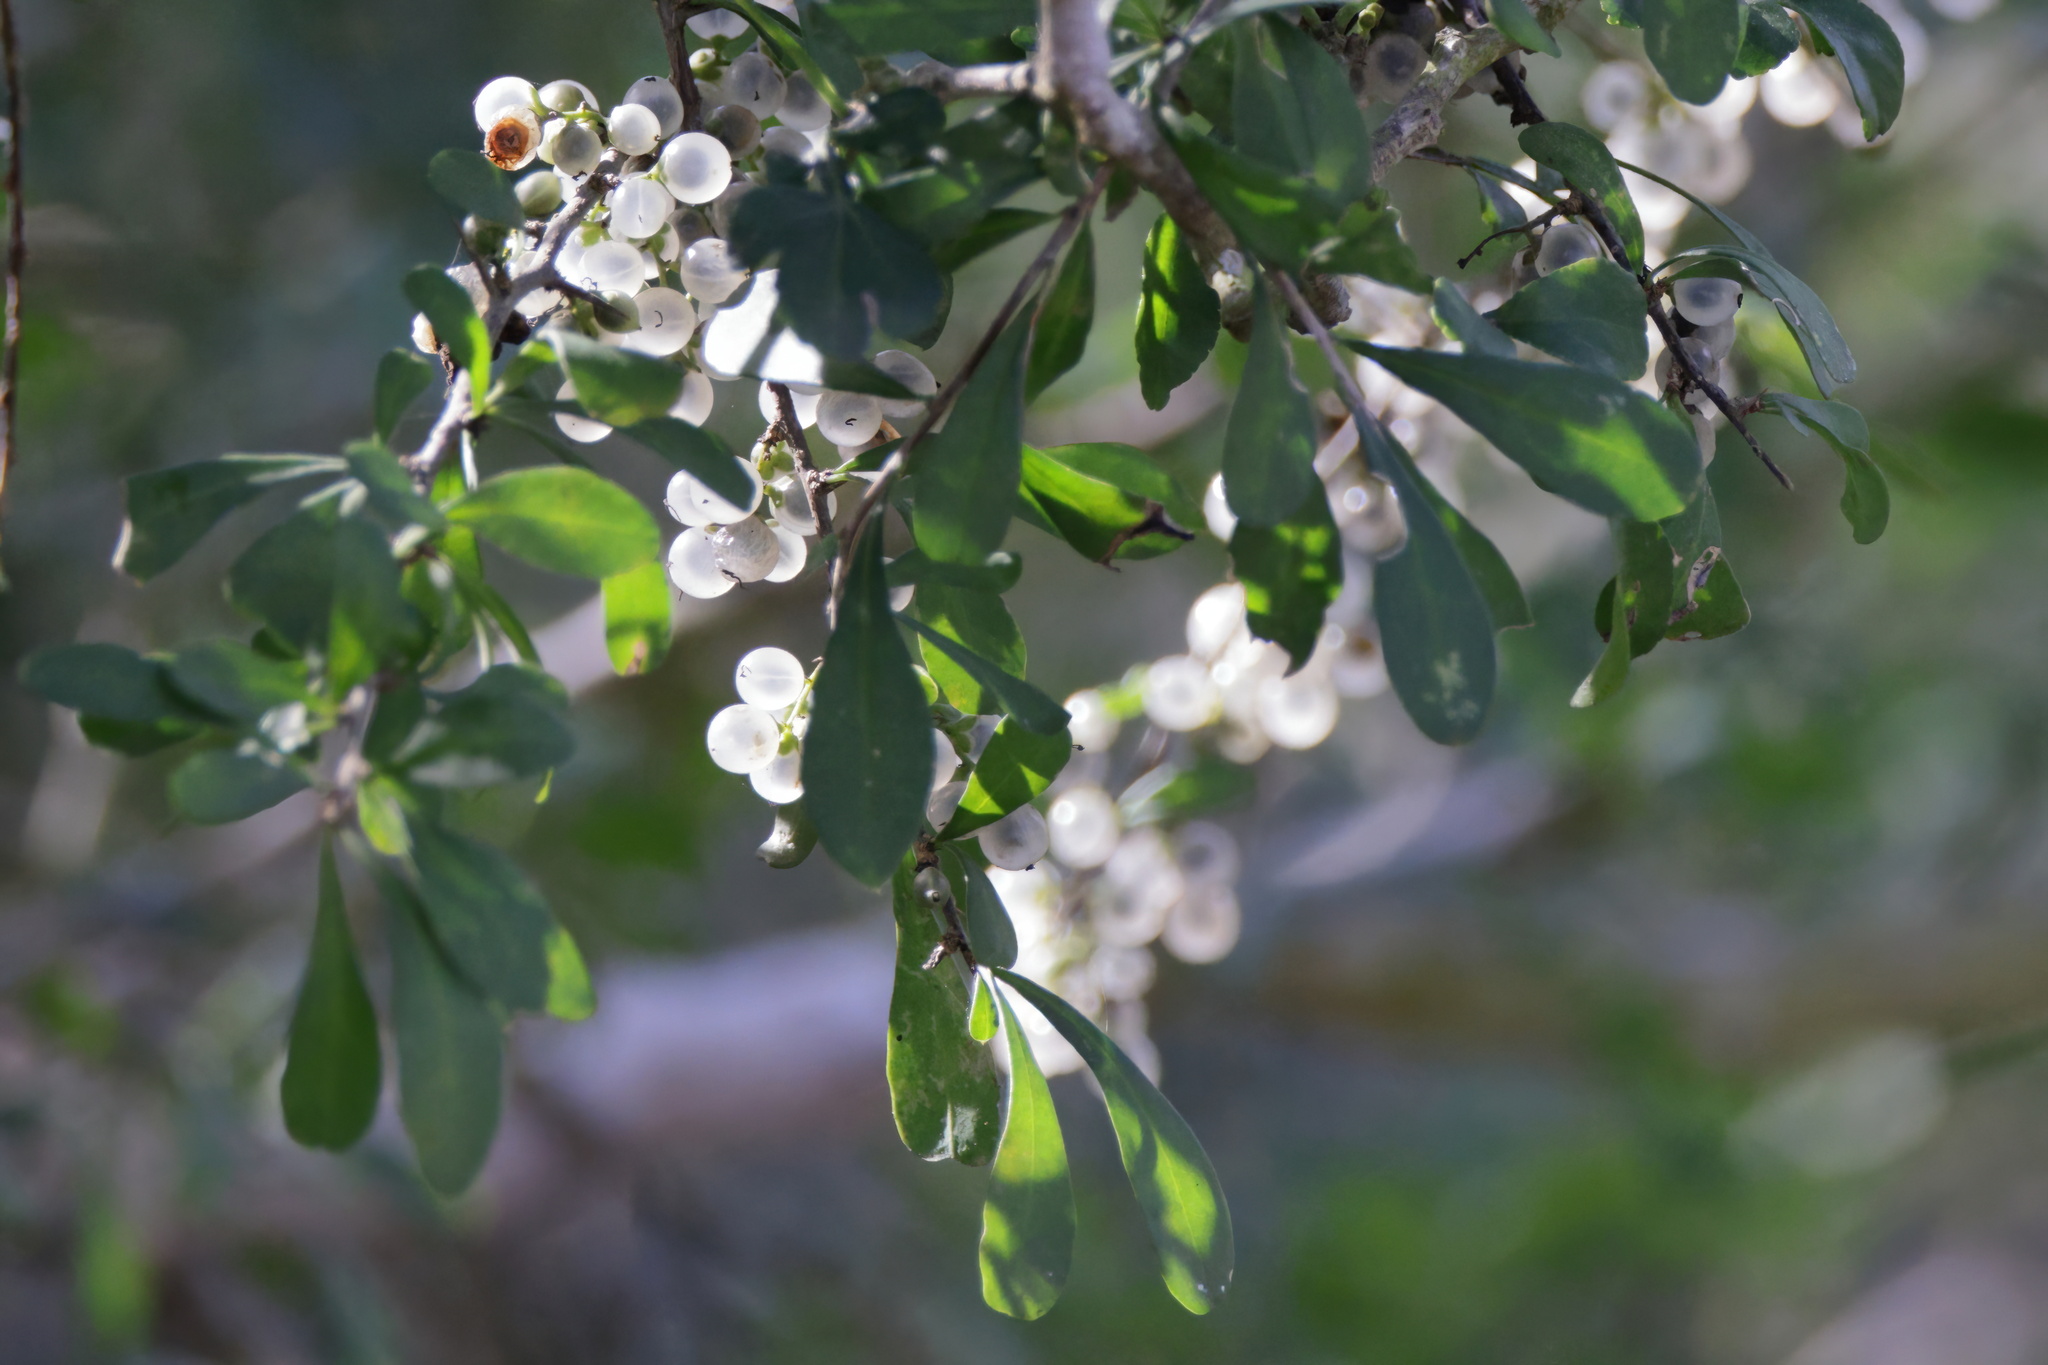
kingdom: Plantae
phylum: Tracheophyta
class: Magnoliopsida
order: Caryophyllales
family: Achatocarpaceae
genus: Phaulothamnus
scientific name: Phaulothamnus spinescens
